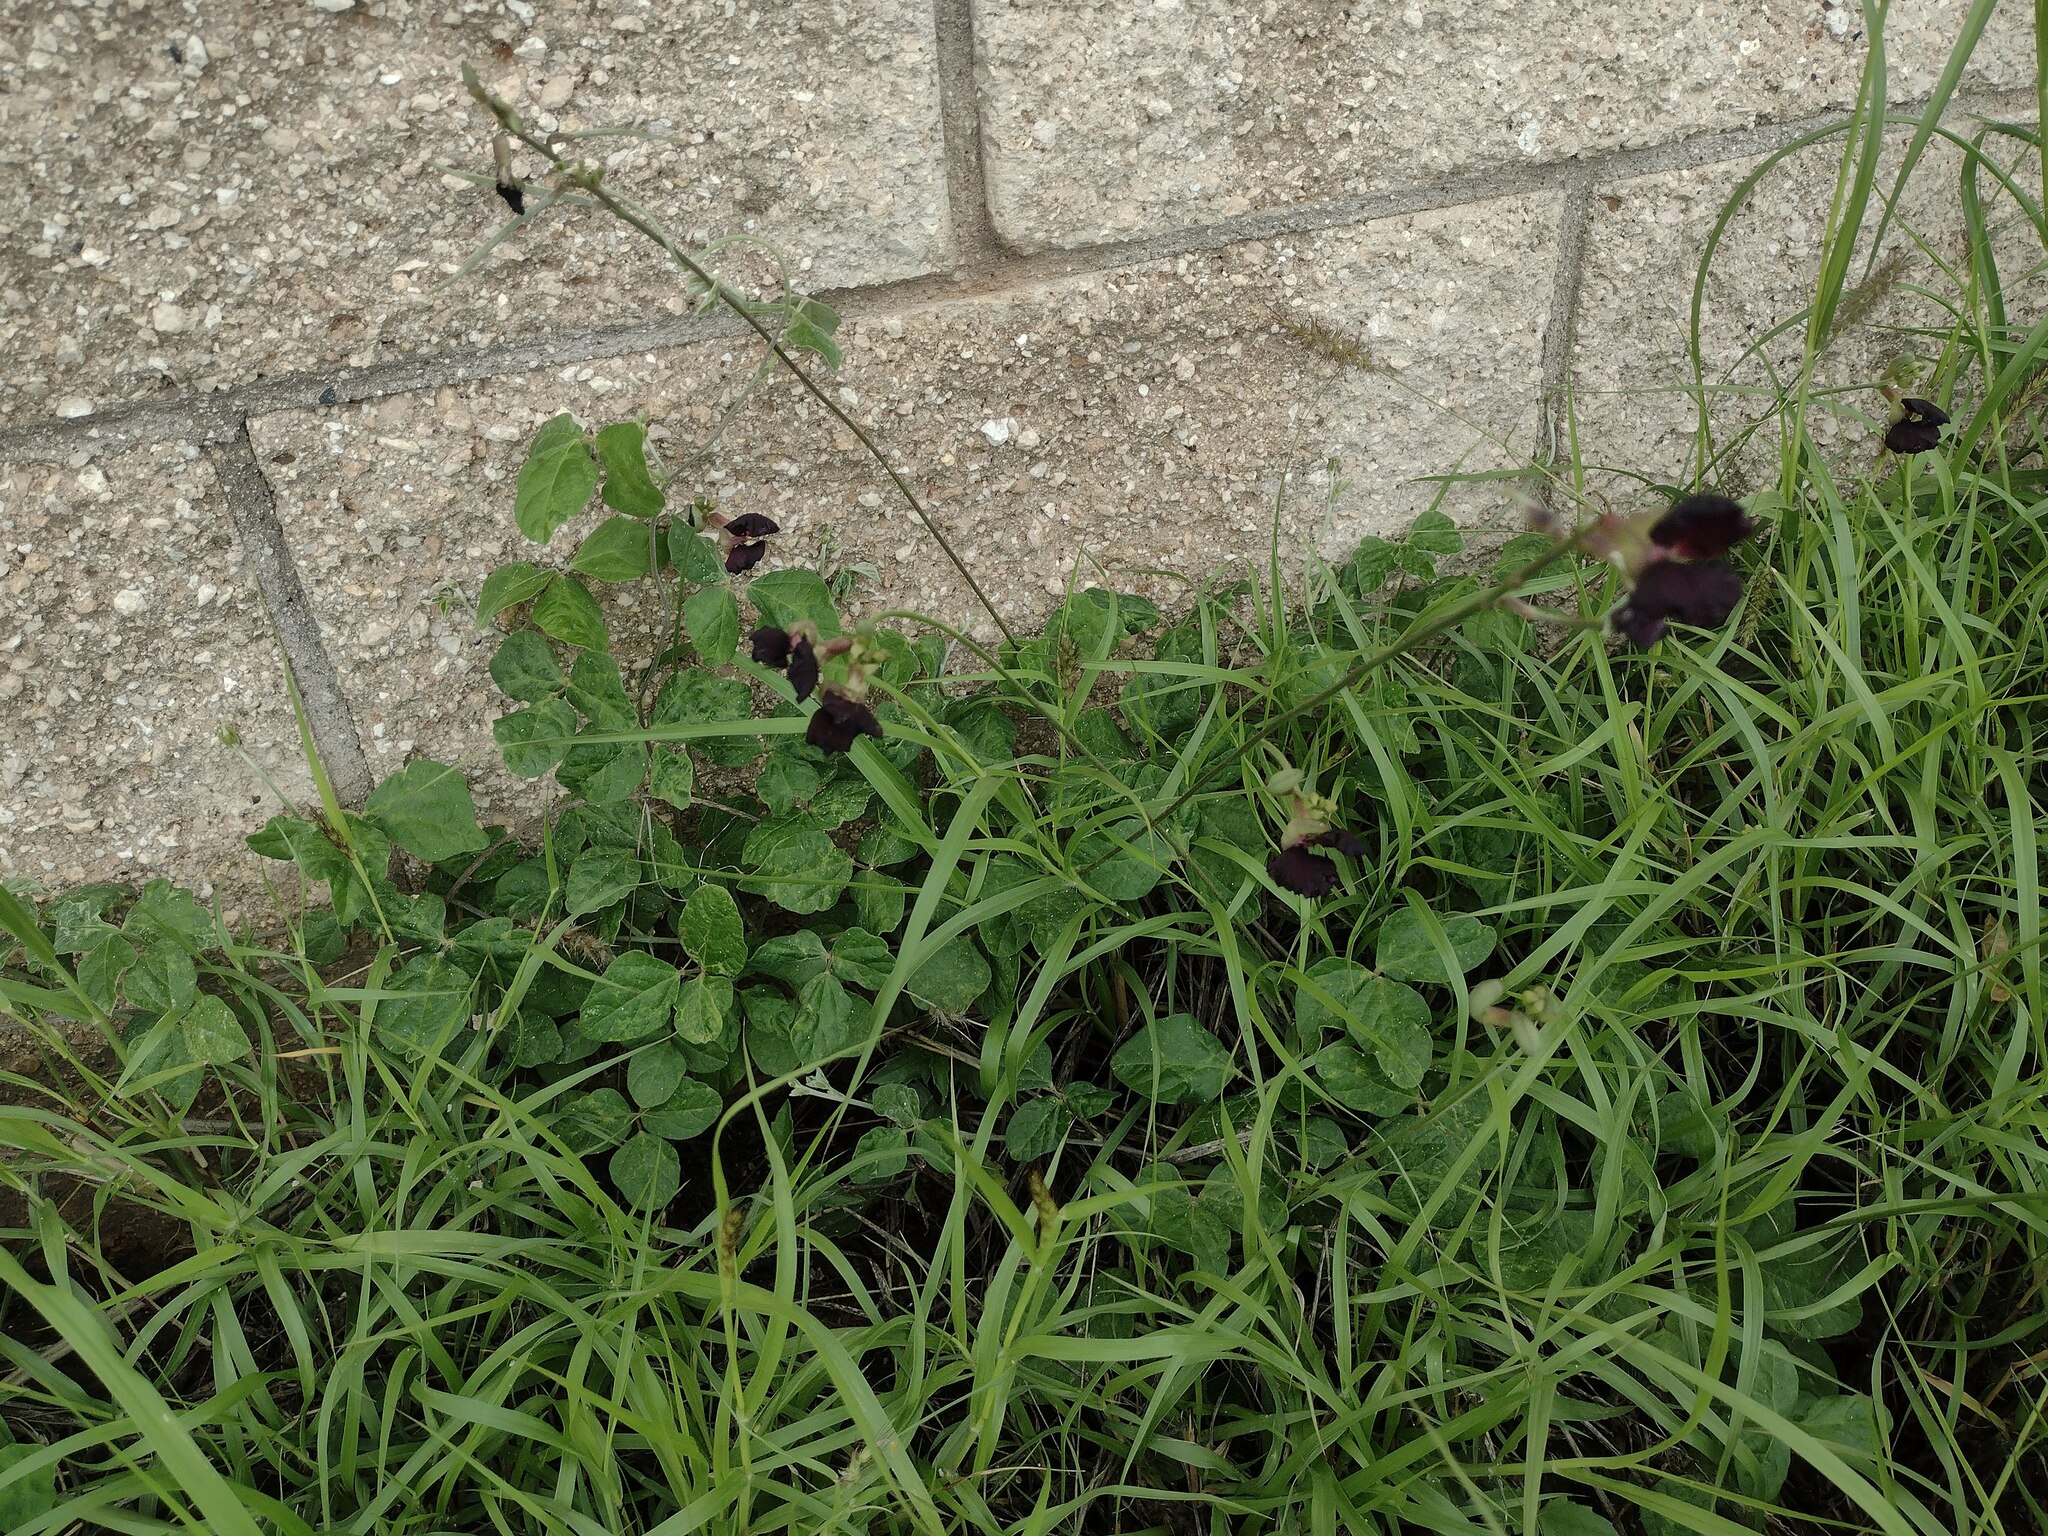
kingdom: Plantae
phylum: Tracheophyta
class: Magnoliopsida
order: Fabales
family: Fabaceae
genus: Macroptilium
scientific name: Macroptilium atropurpureum
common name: Purple bushbean
